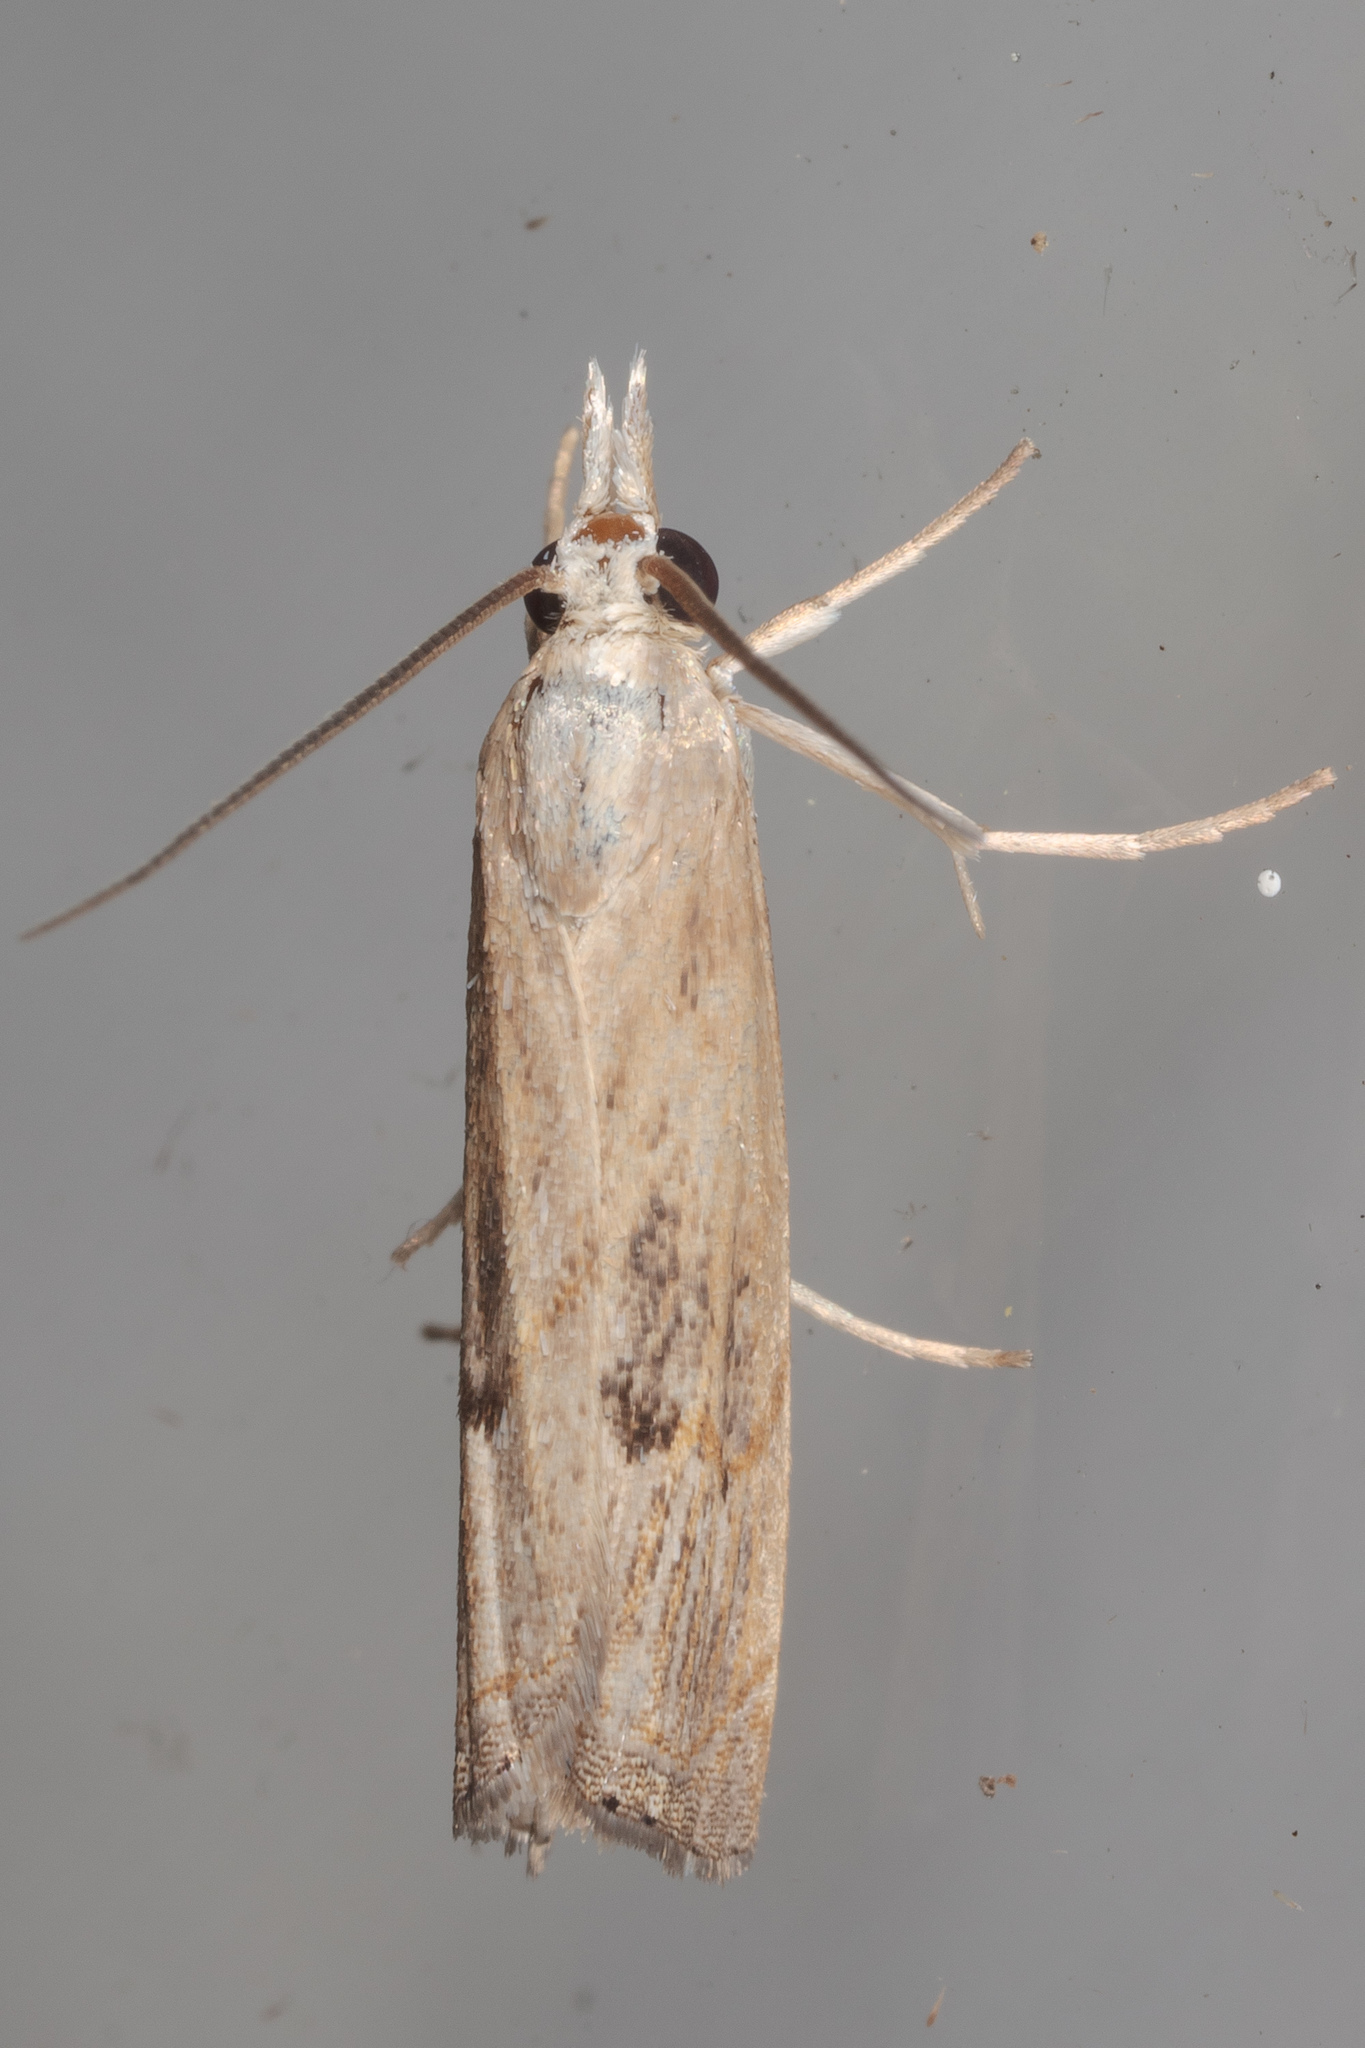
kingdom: Animalia
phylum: Arthropoda
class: Insecta
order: Lepidoptera
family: Crambidae
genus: Parapediasia
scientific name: Parapediasia teterellus
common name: Bluegrass webworm moth
